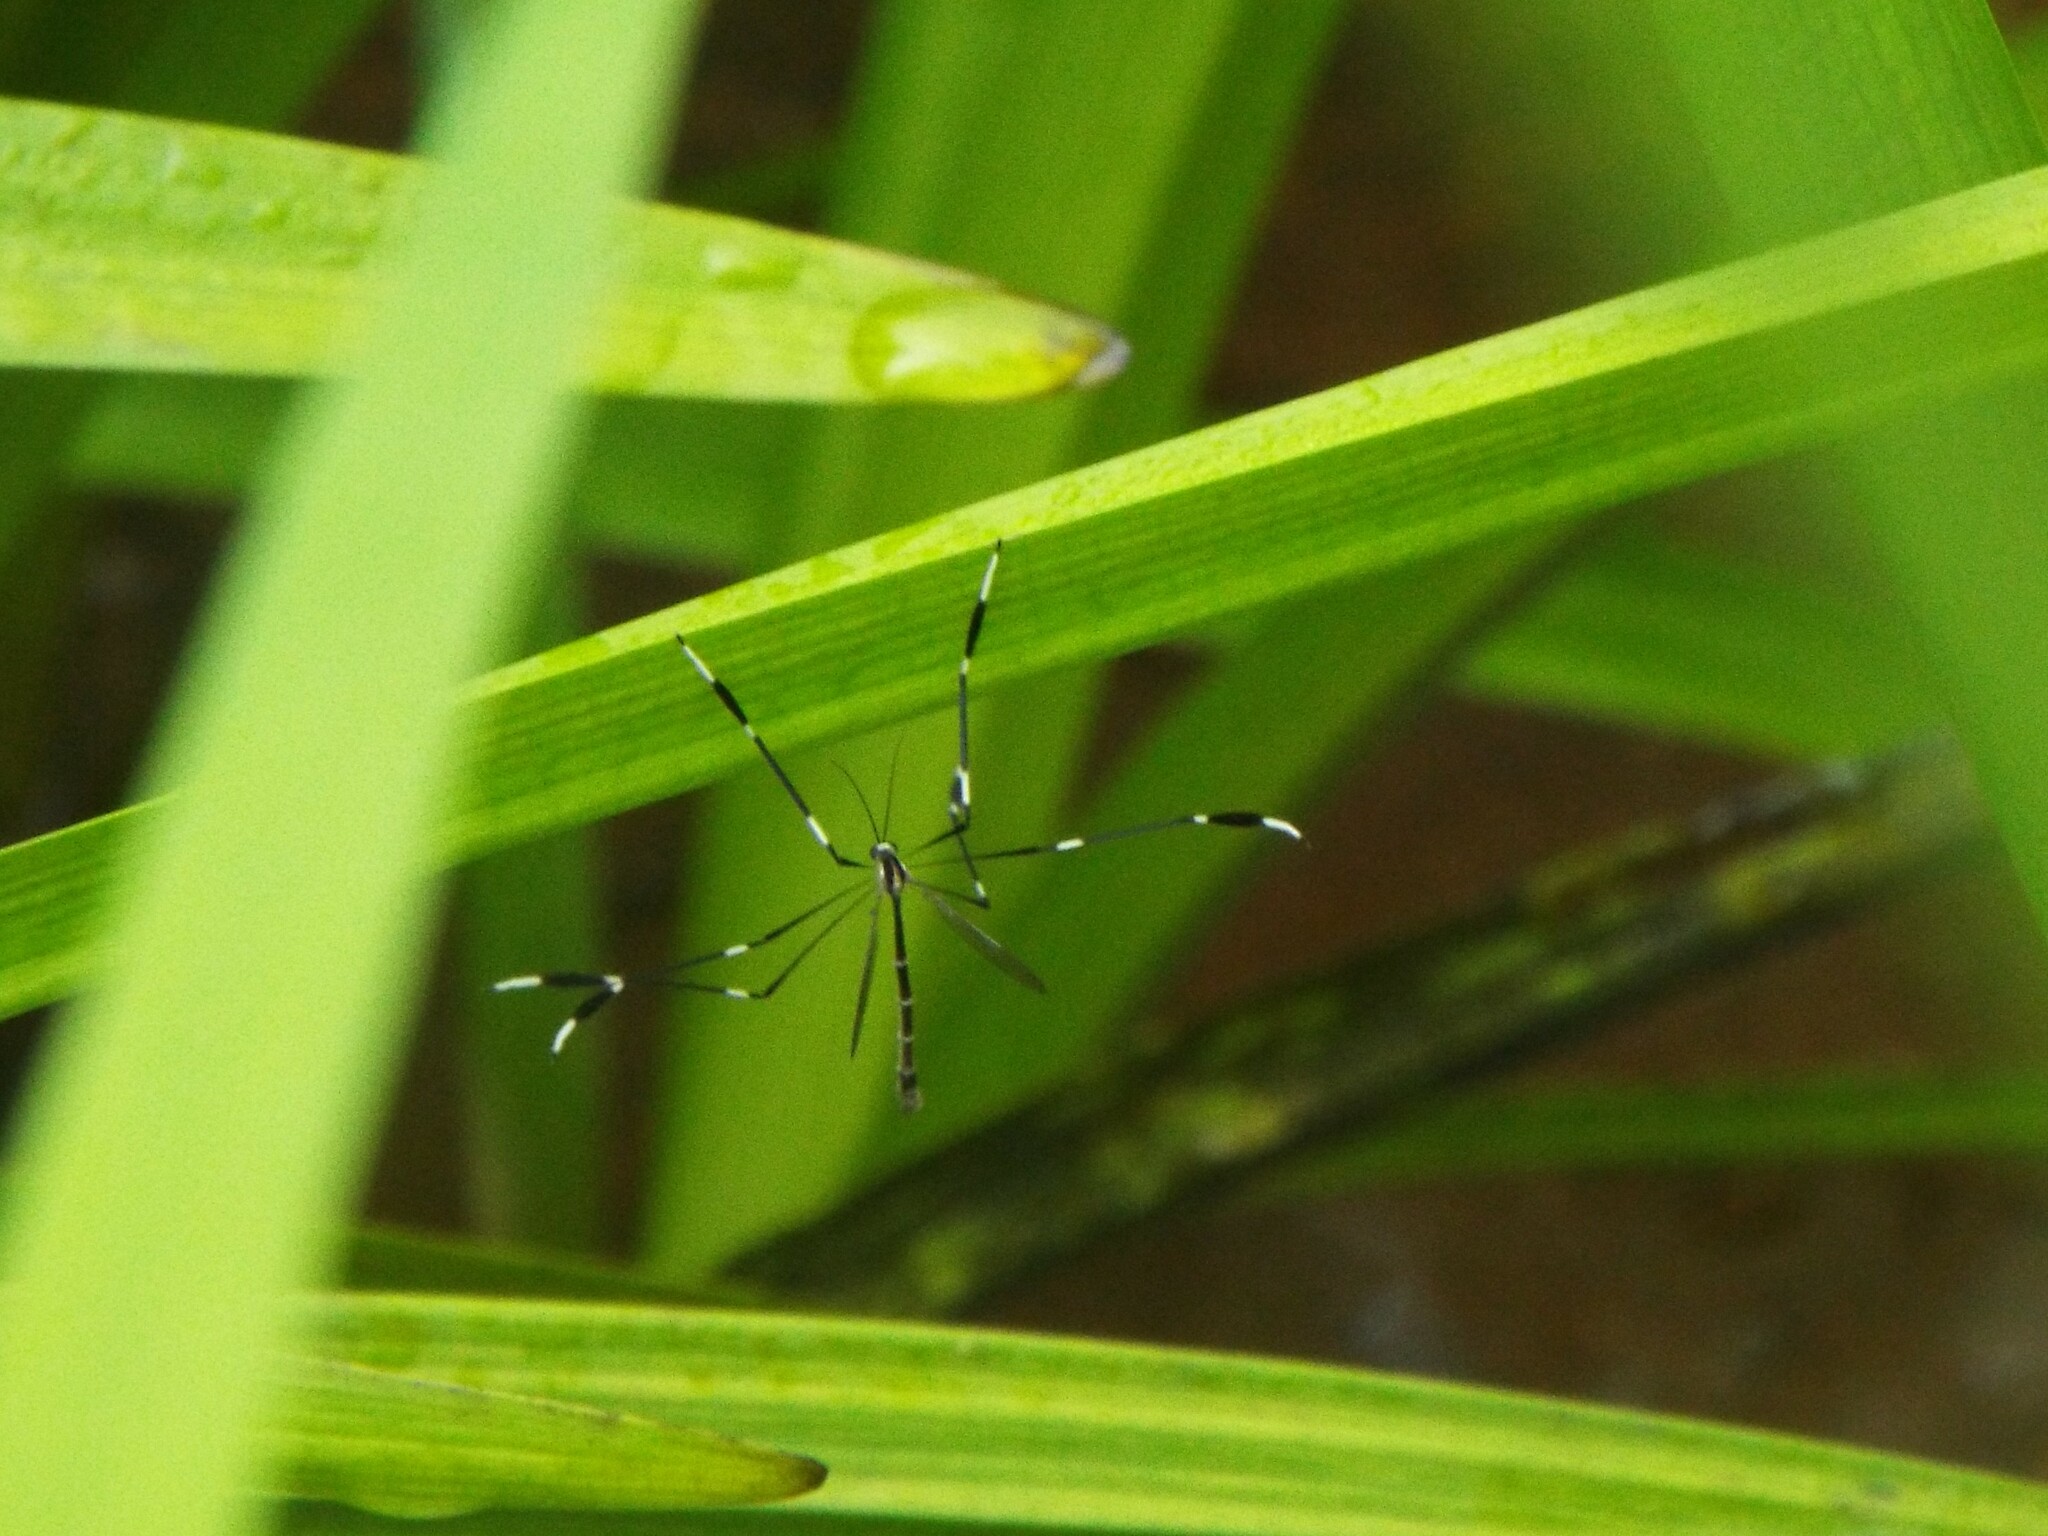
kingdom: Animalia
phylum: Arthropoda
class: Insecta
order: Diptera
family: Ptychopteridae
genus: Bittacomorpha
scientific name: Bittacomorpha clavipes
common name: Eastern phantom crane fly
